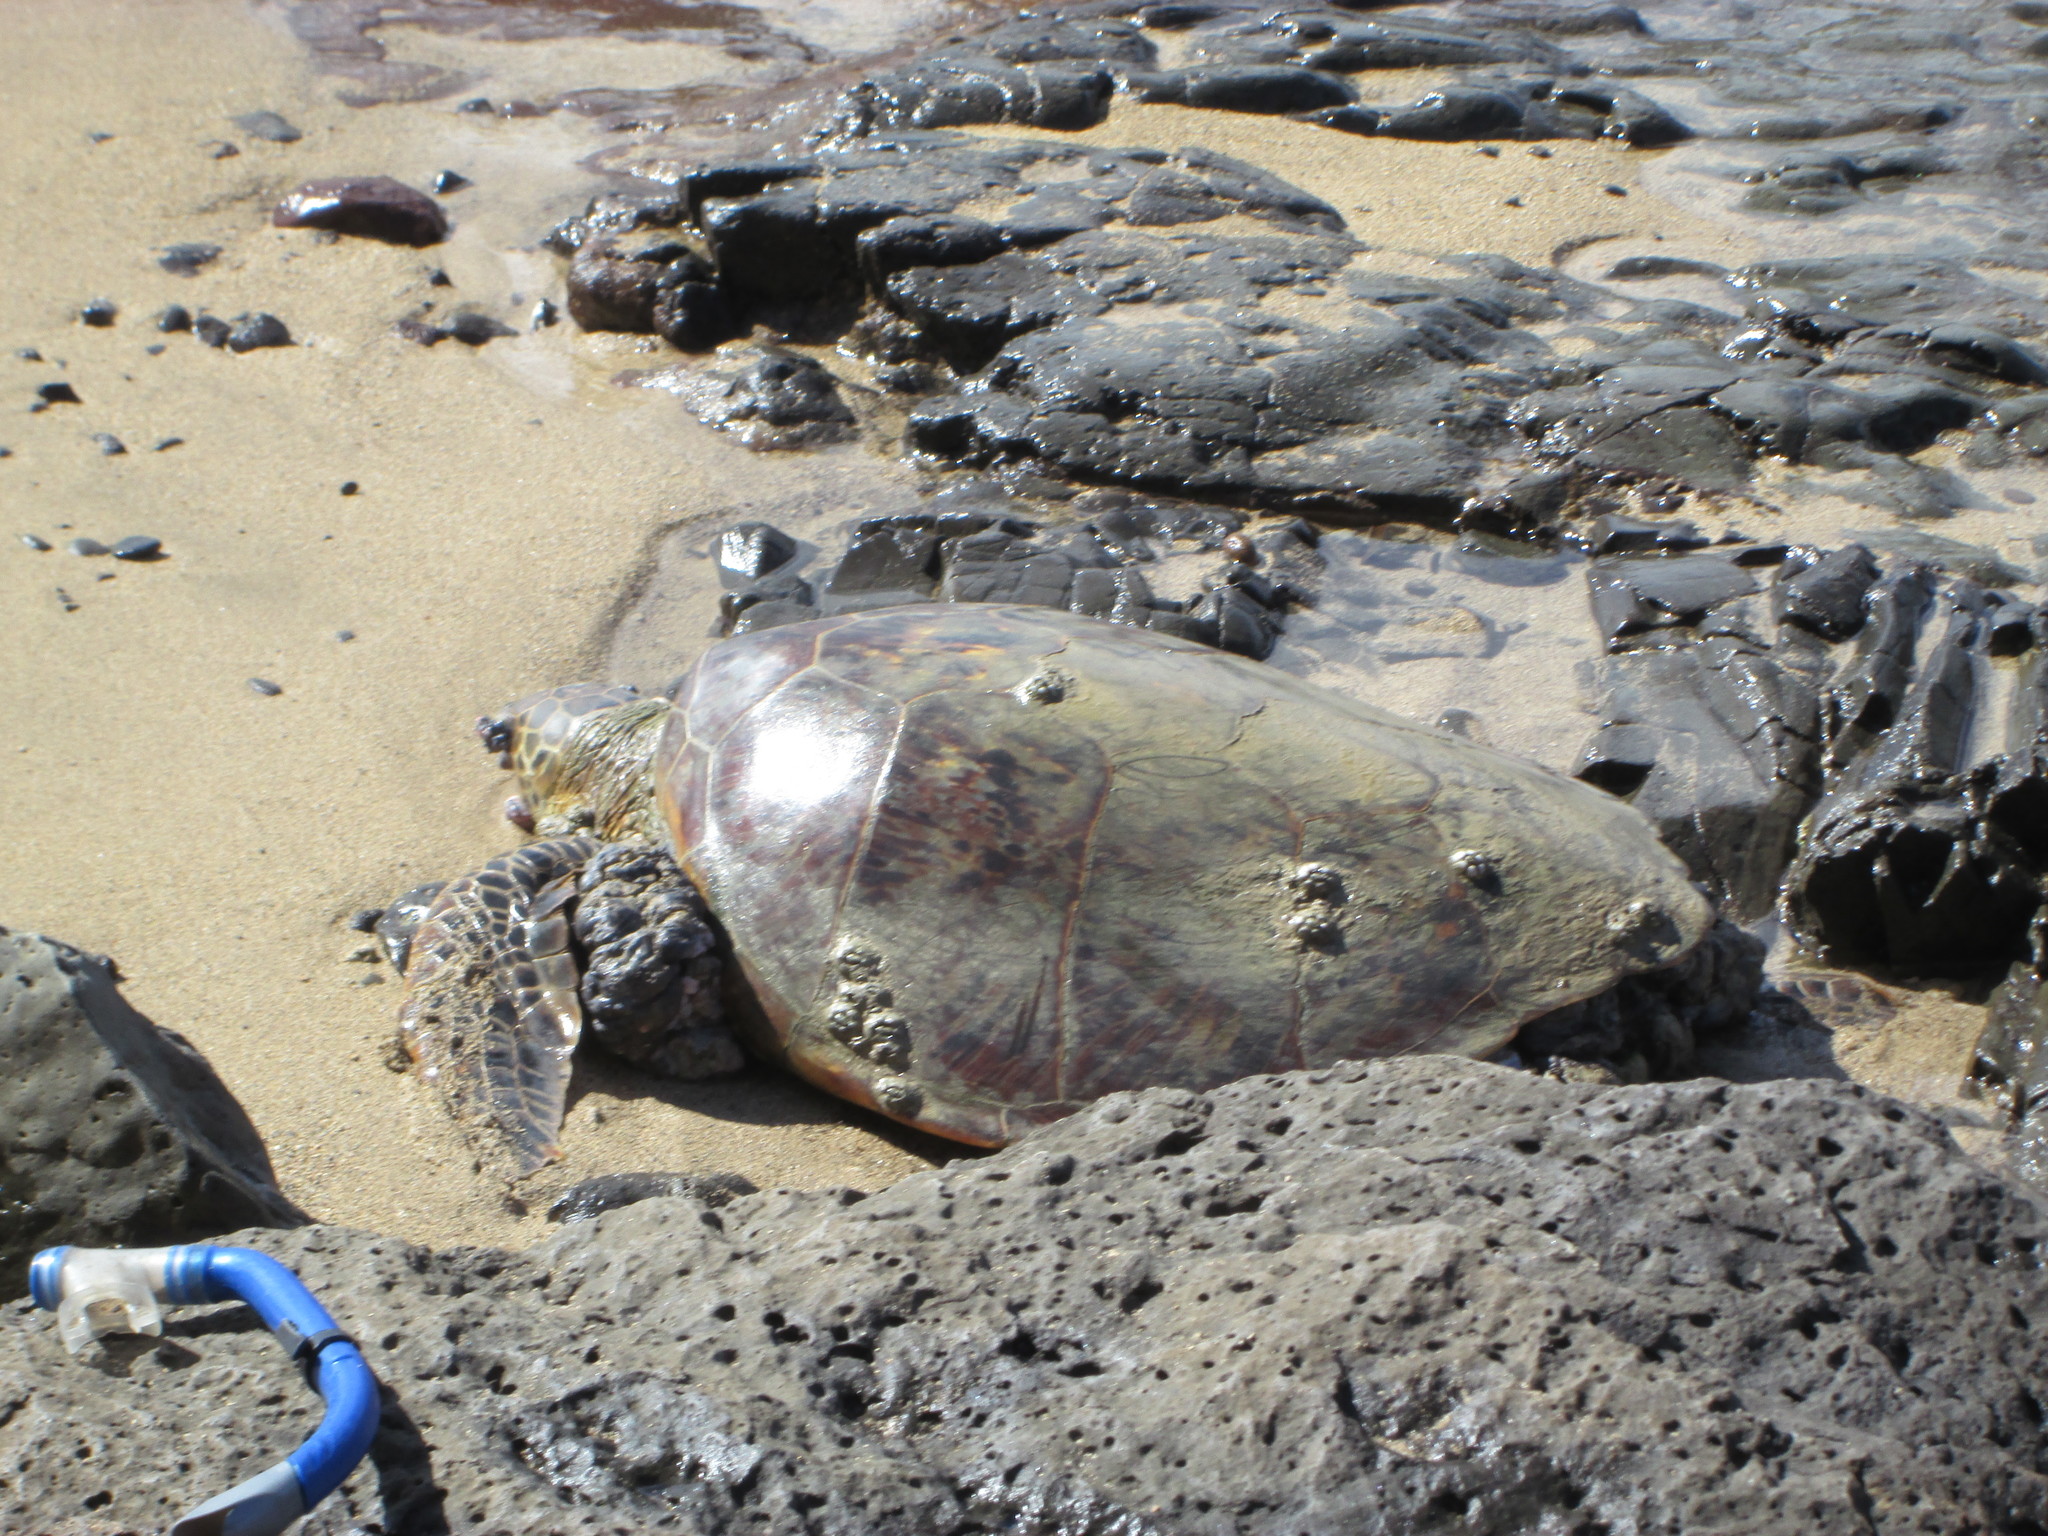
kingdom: Animalia
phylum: Chordata
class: Testudines
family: Cheloniidae
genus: Chelonia
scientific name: Chelonia mydas
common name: Green turtle
